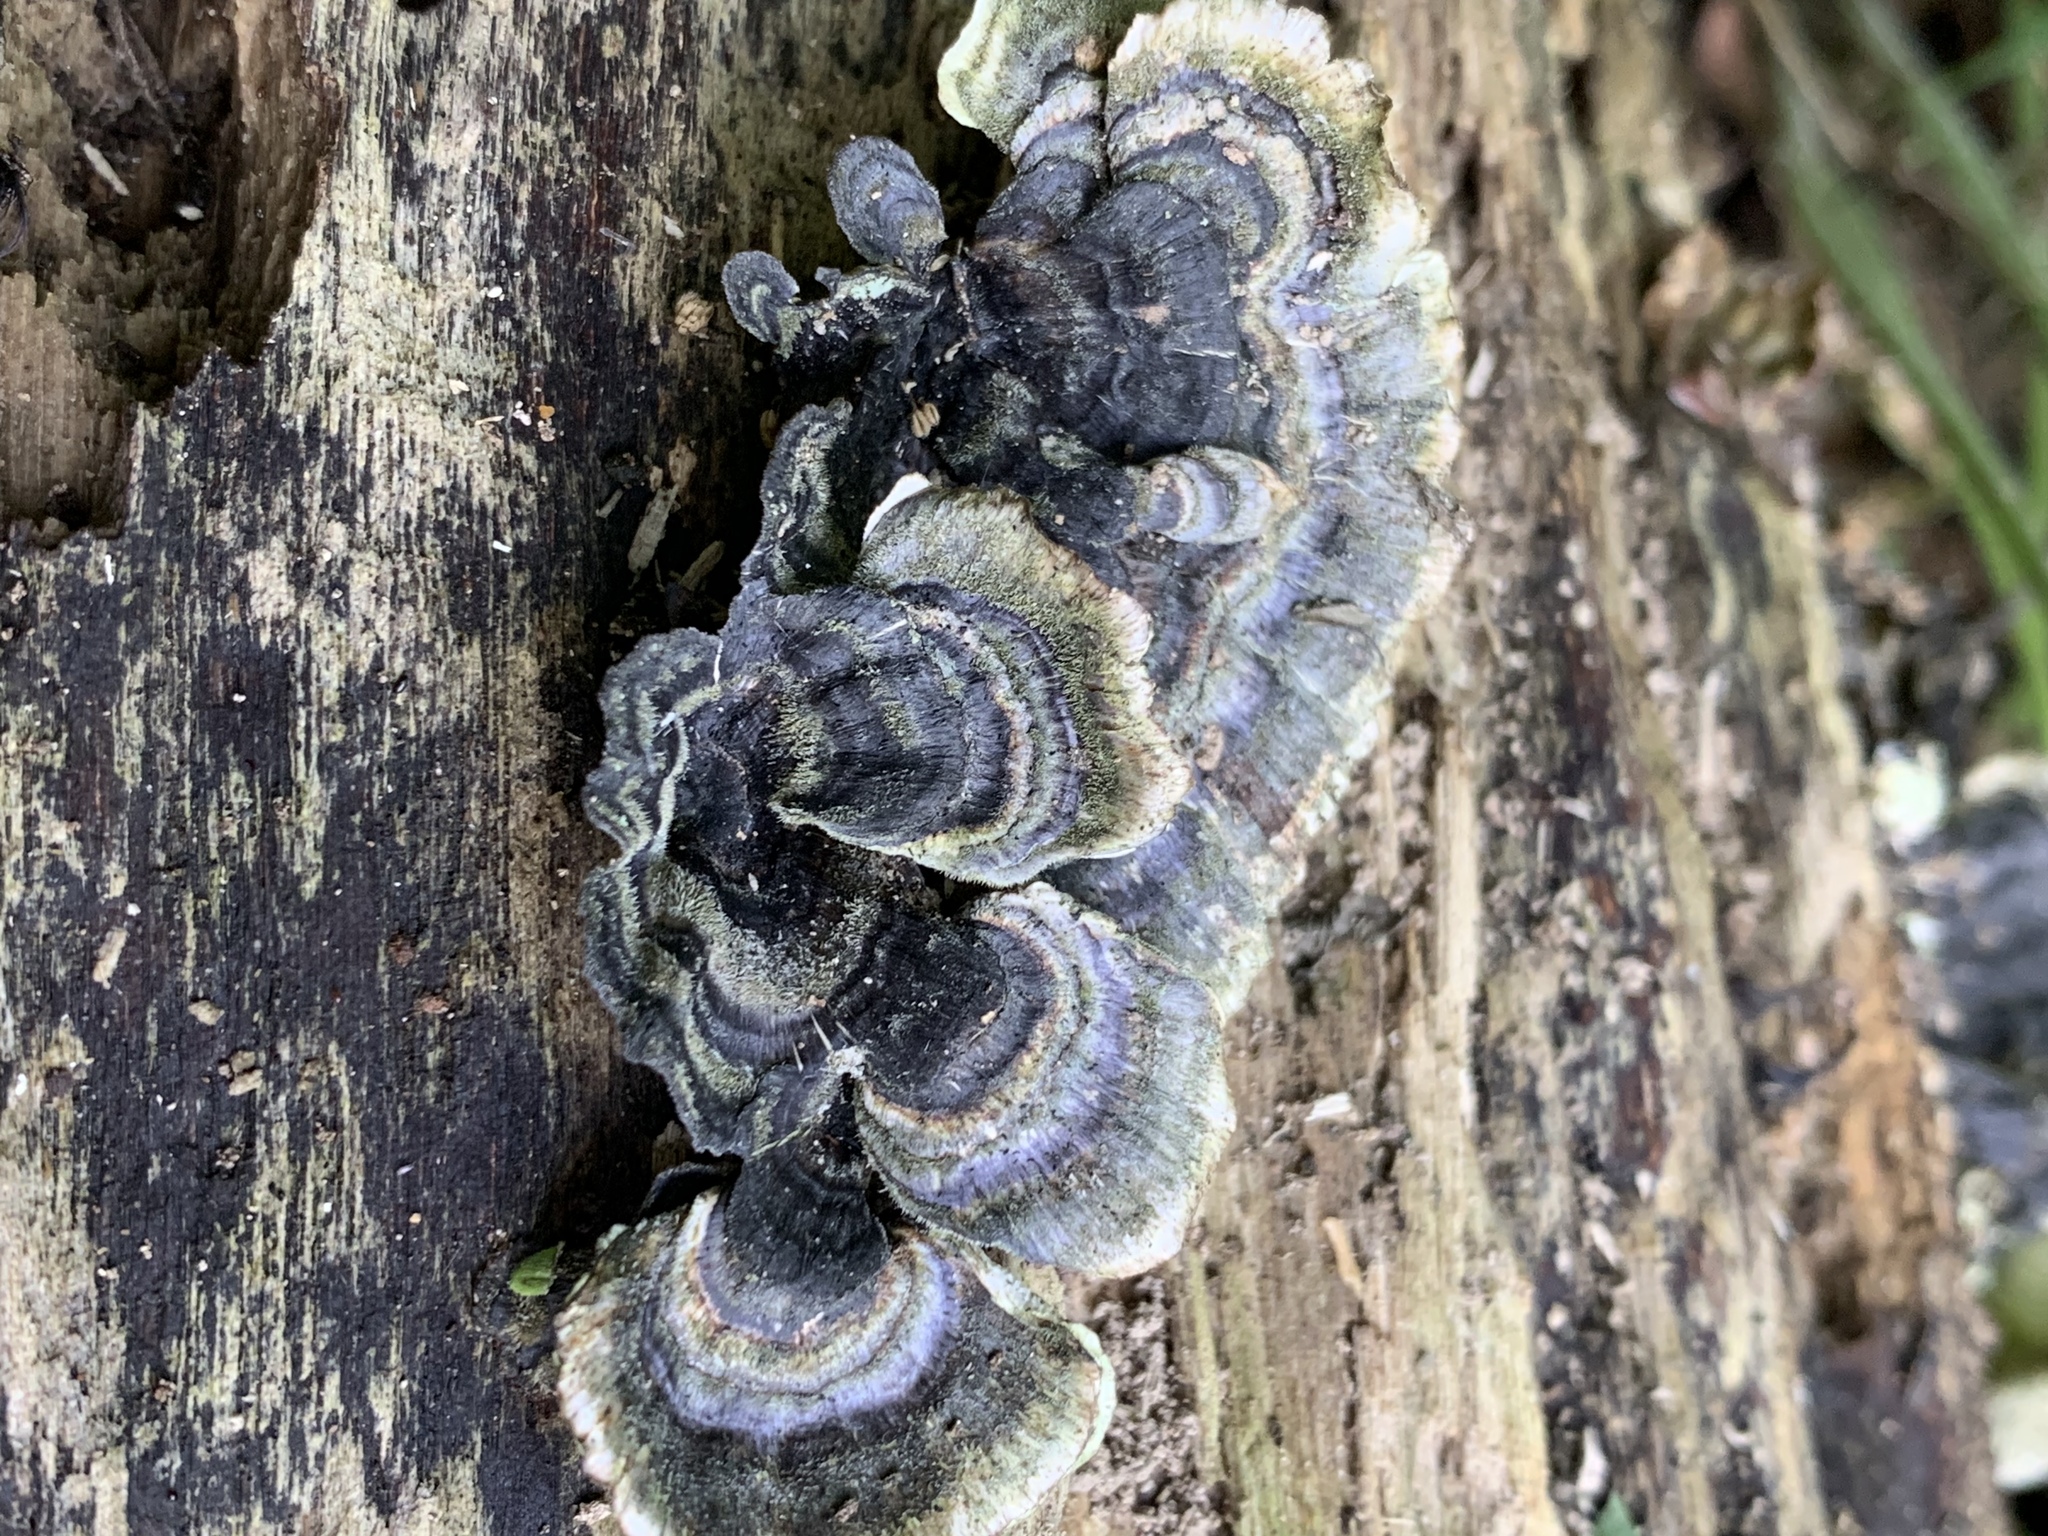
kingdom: Fungi
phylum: Basidiomycota
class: Agaricomycetes
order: Polyporales
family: Polyporaceae
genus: Trametes
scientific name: Trametes versicolor
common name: Turkeytail
